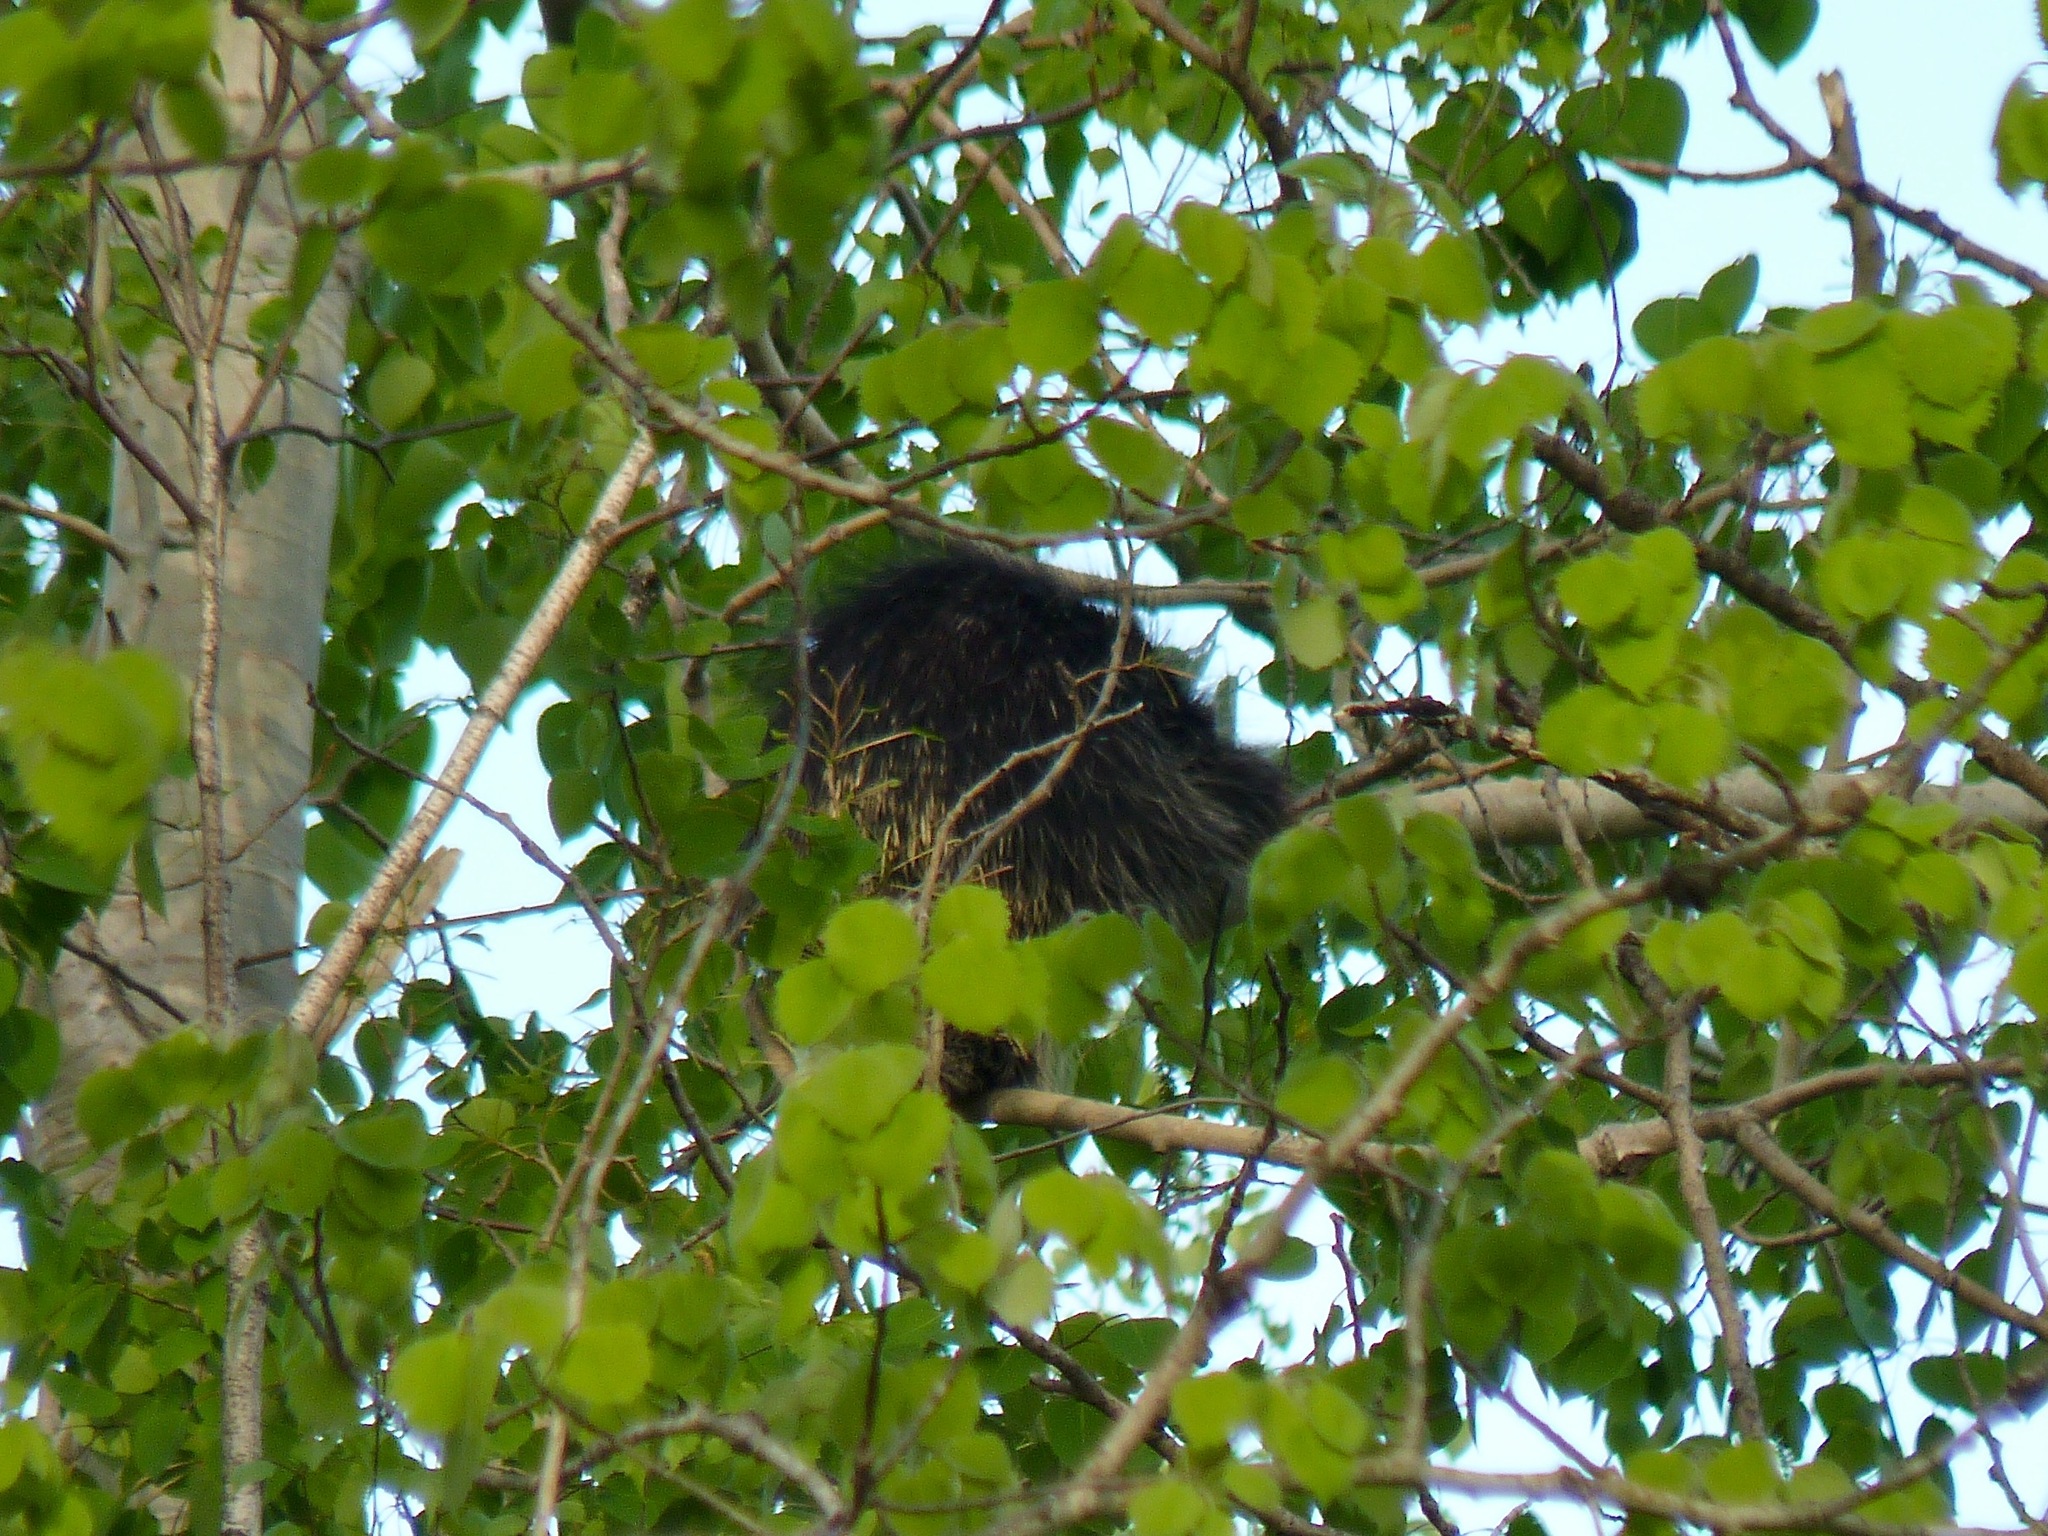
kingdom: Animalia
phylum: Chordata
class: Mammalia
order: Rodentia
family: Erethizontidae
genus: Erethizon
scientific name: Erethizon dorsatus
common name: North american porcupine
